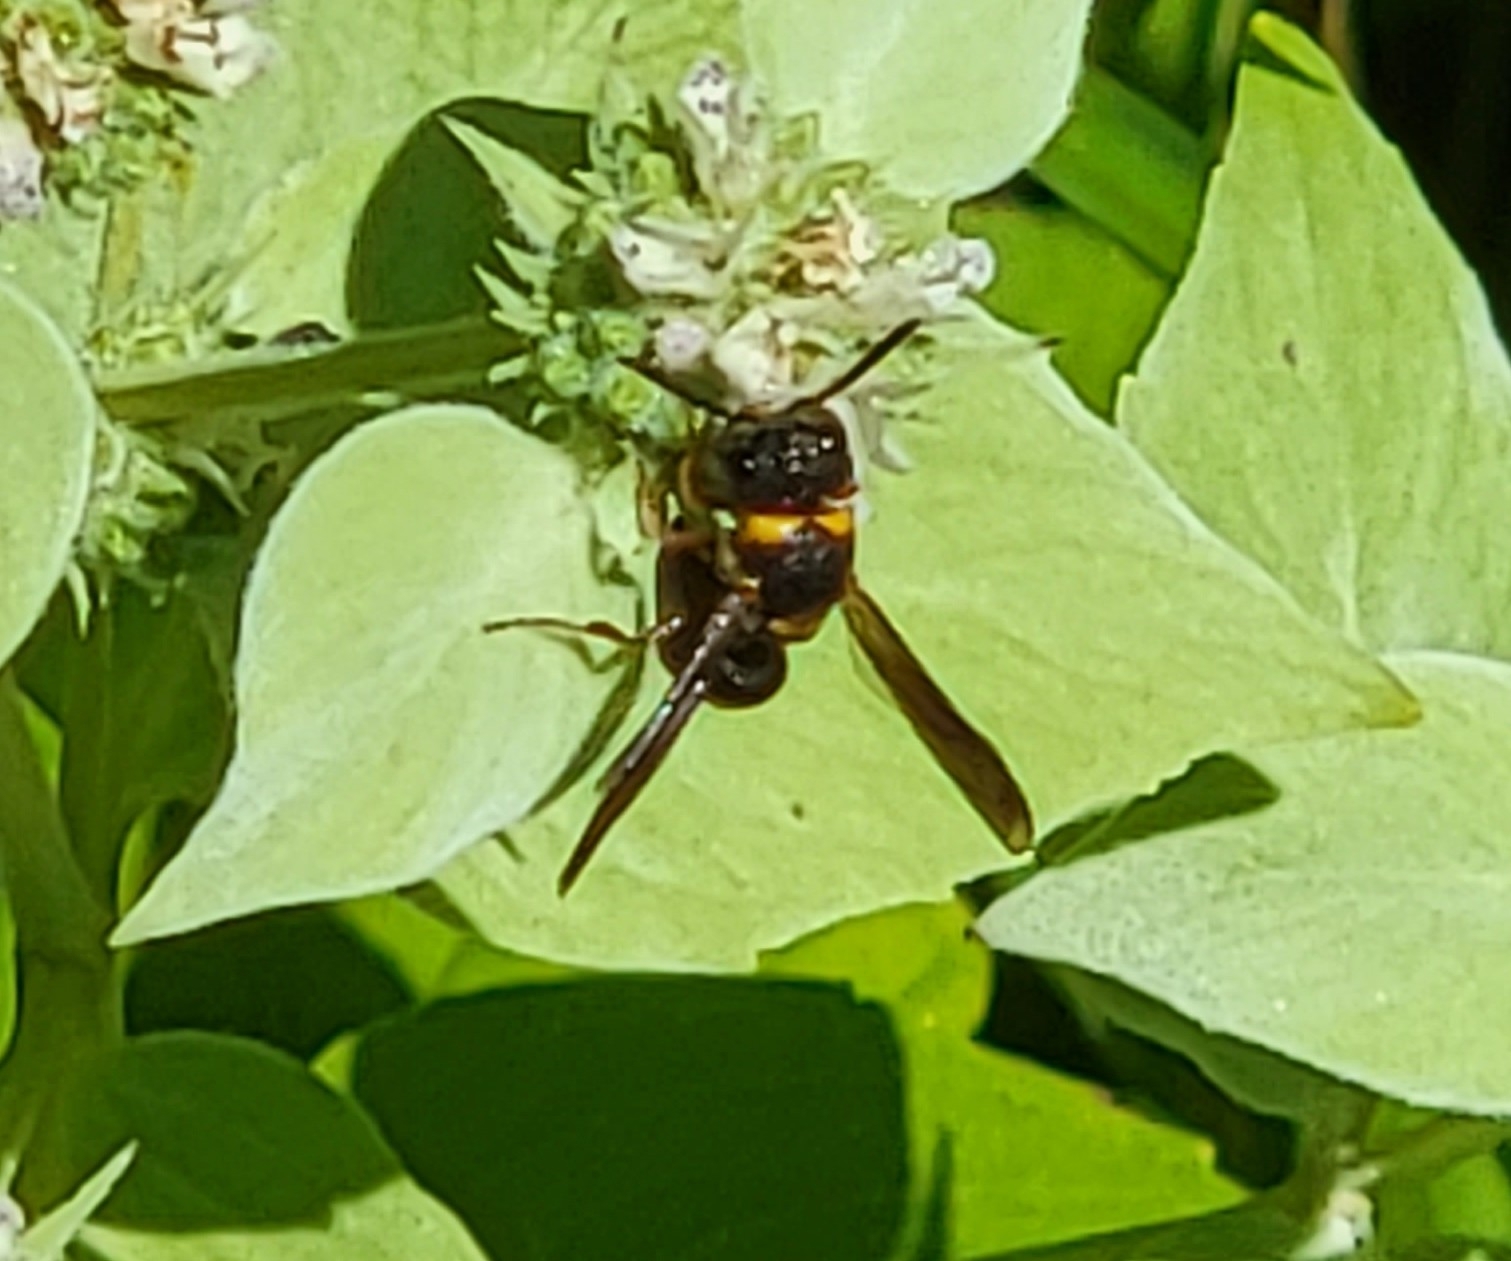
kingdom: Animalia
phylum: Arthropoda
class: Insecta
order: Hymenoptera
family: Eumenidae
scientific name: Eumenidae
